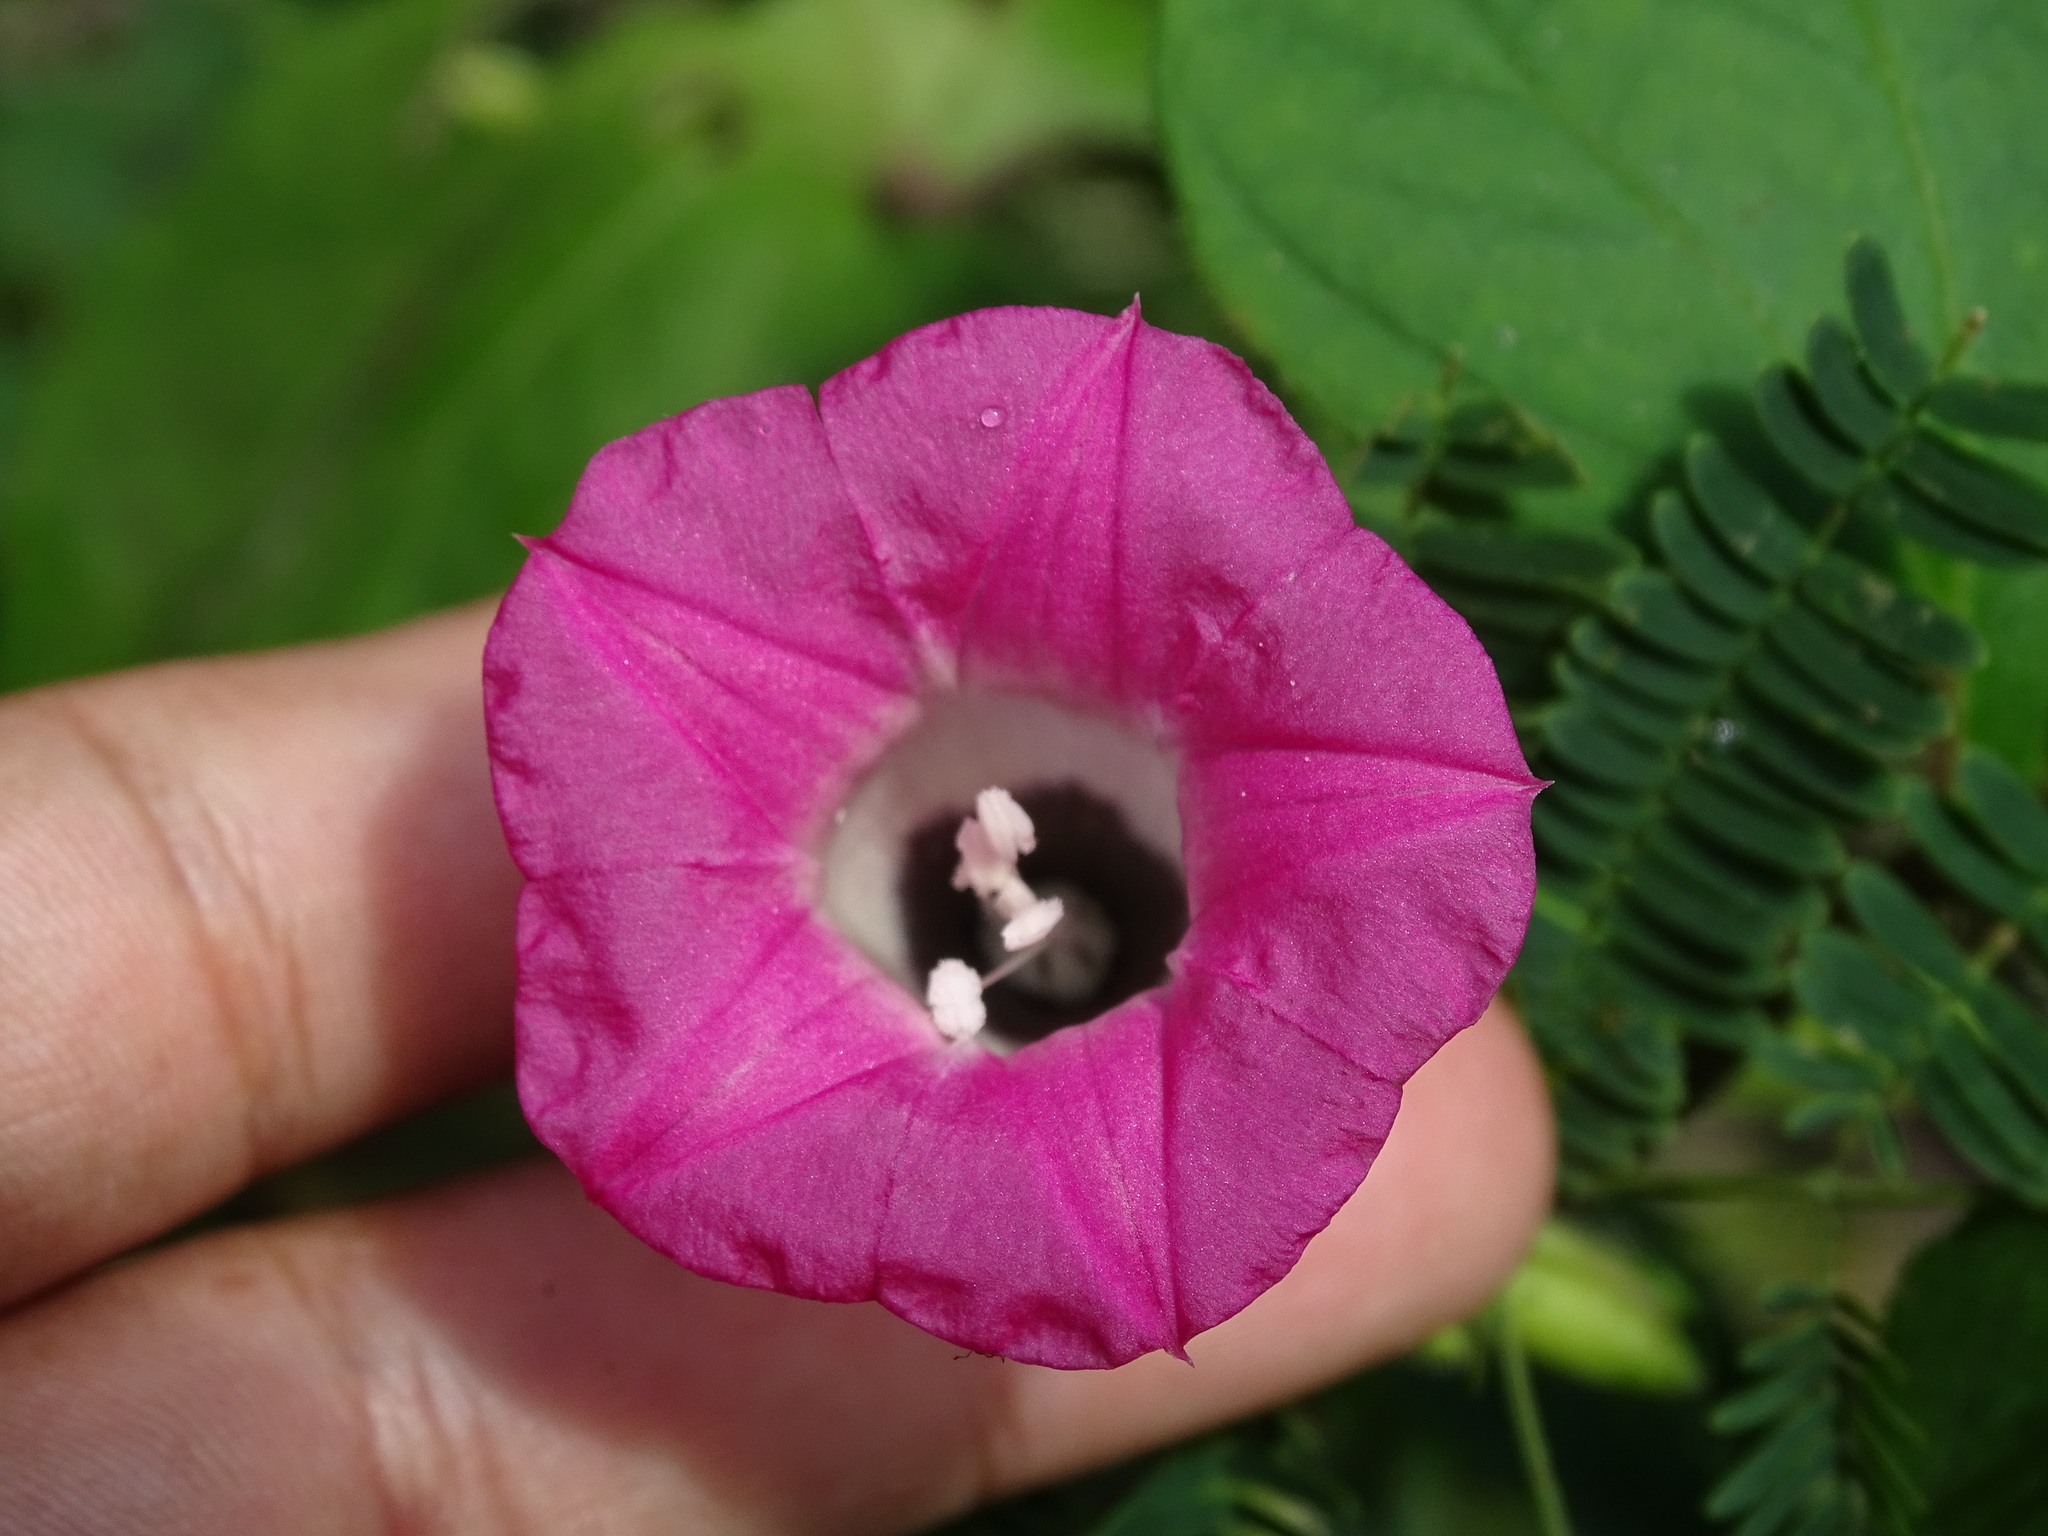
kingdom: Plantae
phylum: Tracheophyta
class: Magnoliopsida
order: Solanales
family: Convolvulaceae
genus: Ipomoea
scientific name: Ipomoea peteri
